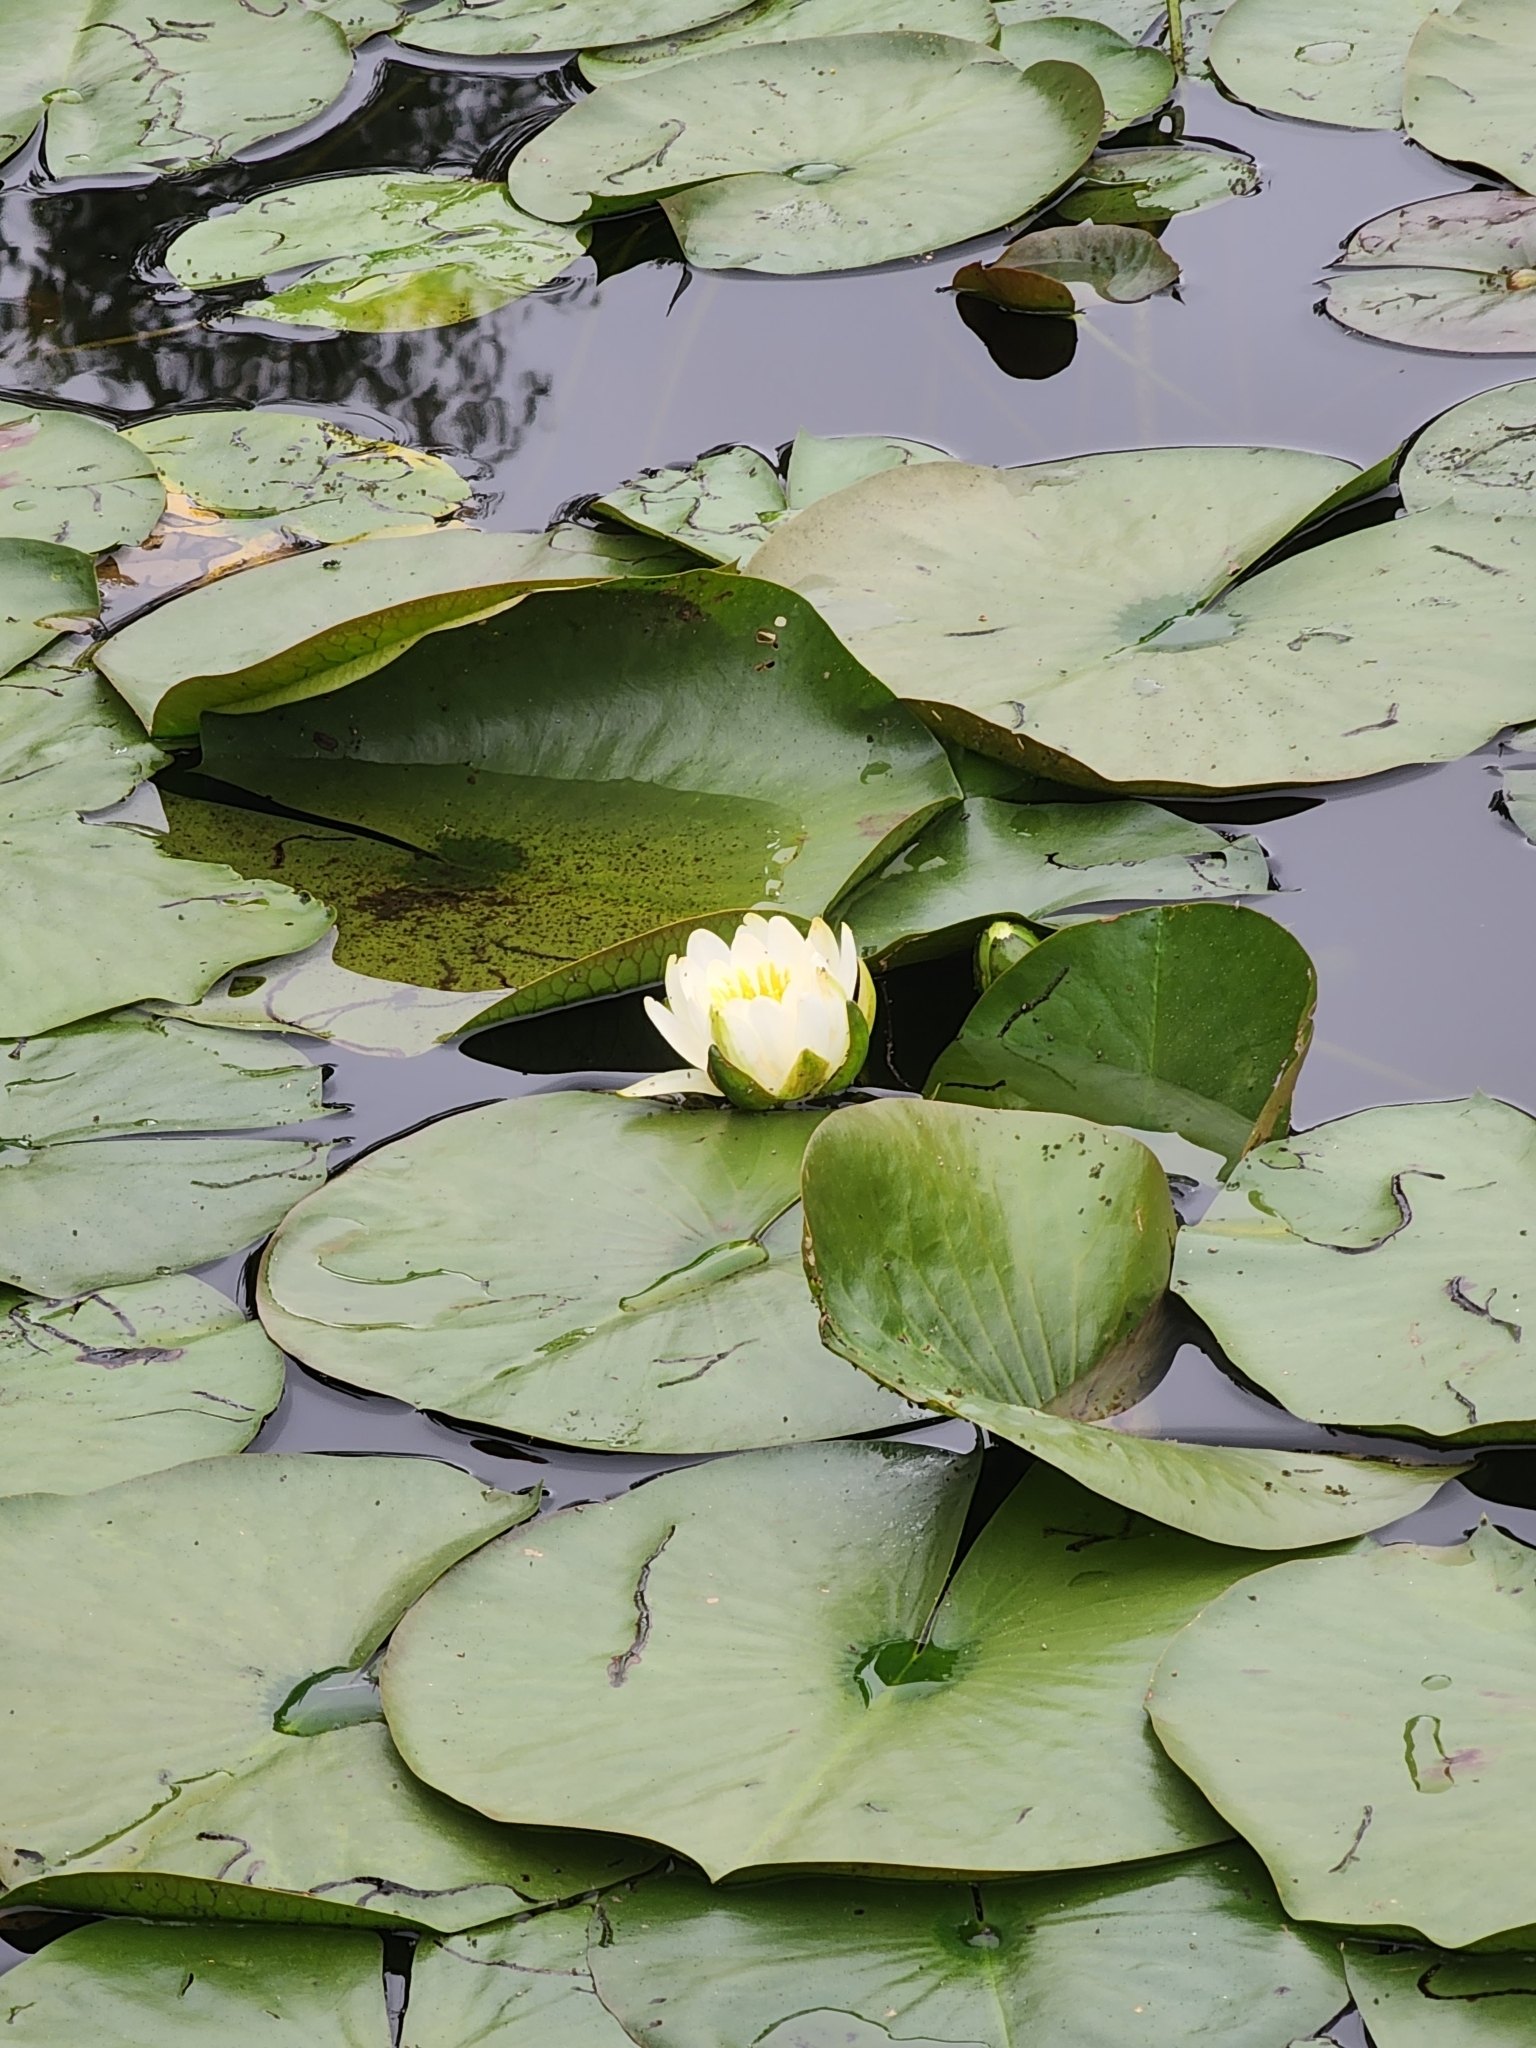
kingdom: Plantae
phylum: Tracheophyta
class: Magnoliopsida
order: Nymphaeales
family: Nymphaeaceae
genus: Nymphaea
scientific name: Nymphaea odorata
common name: Fragrant water-lily
